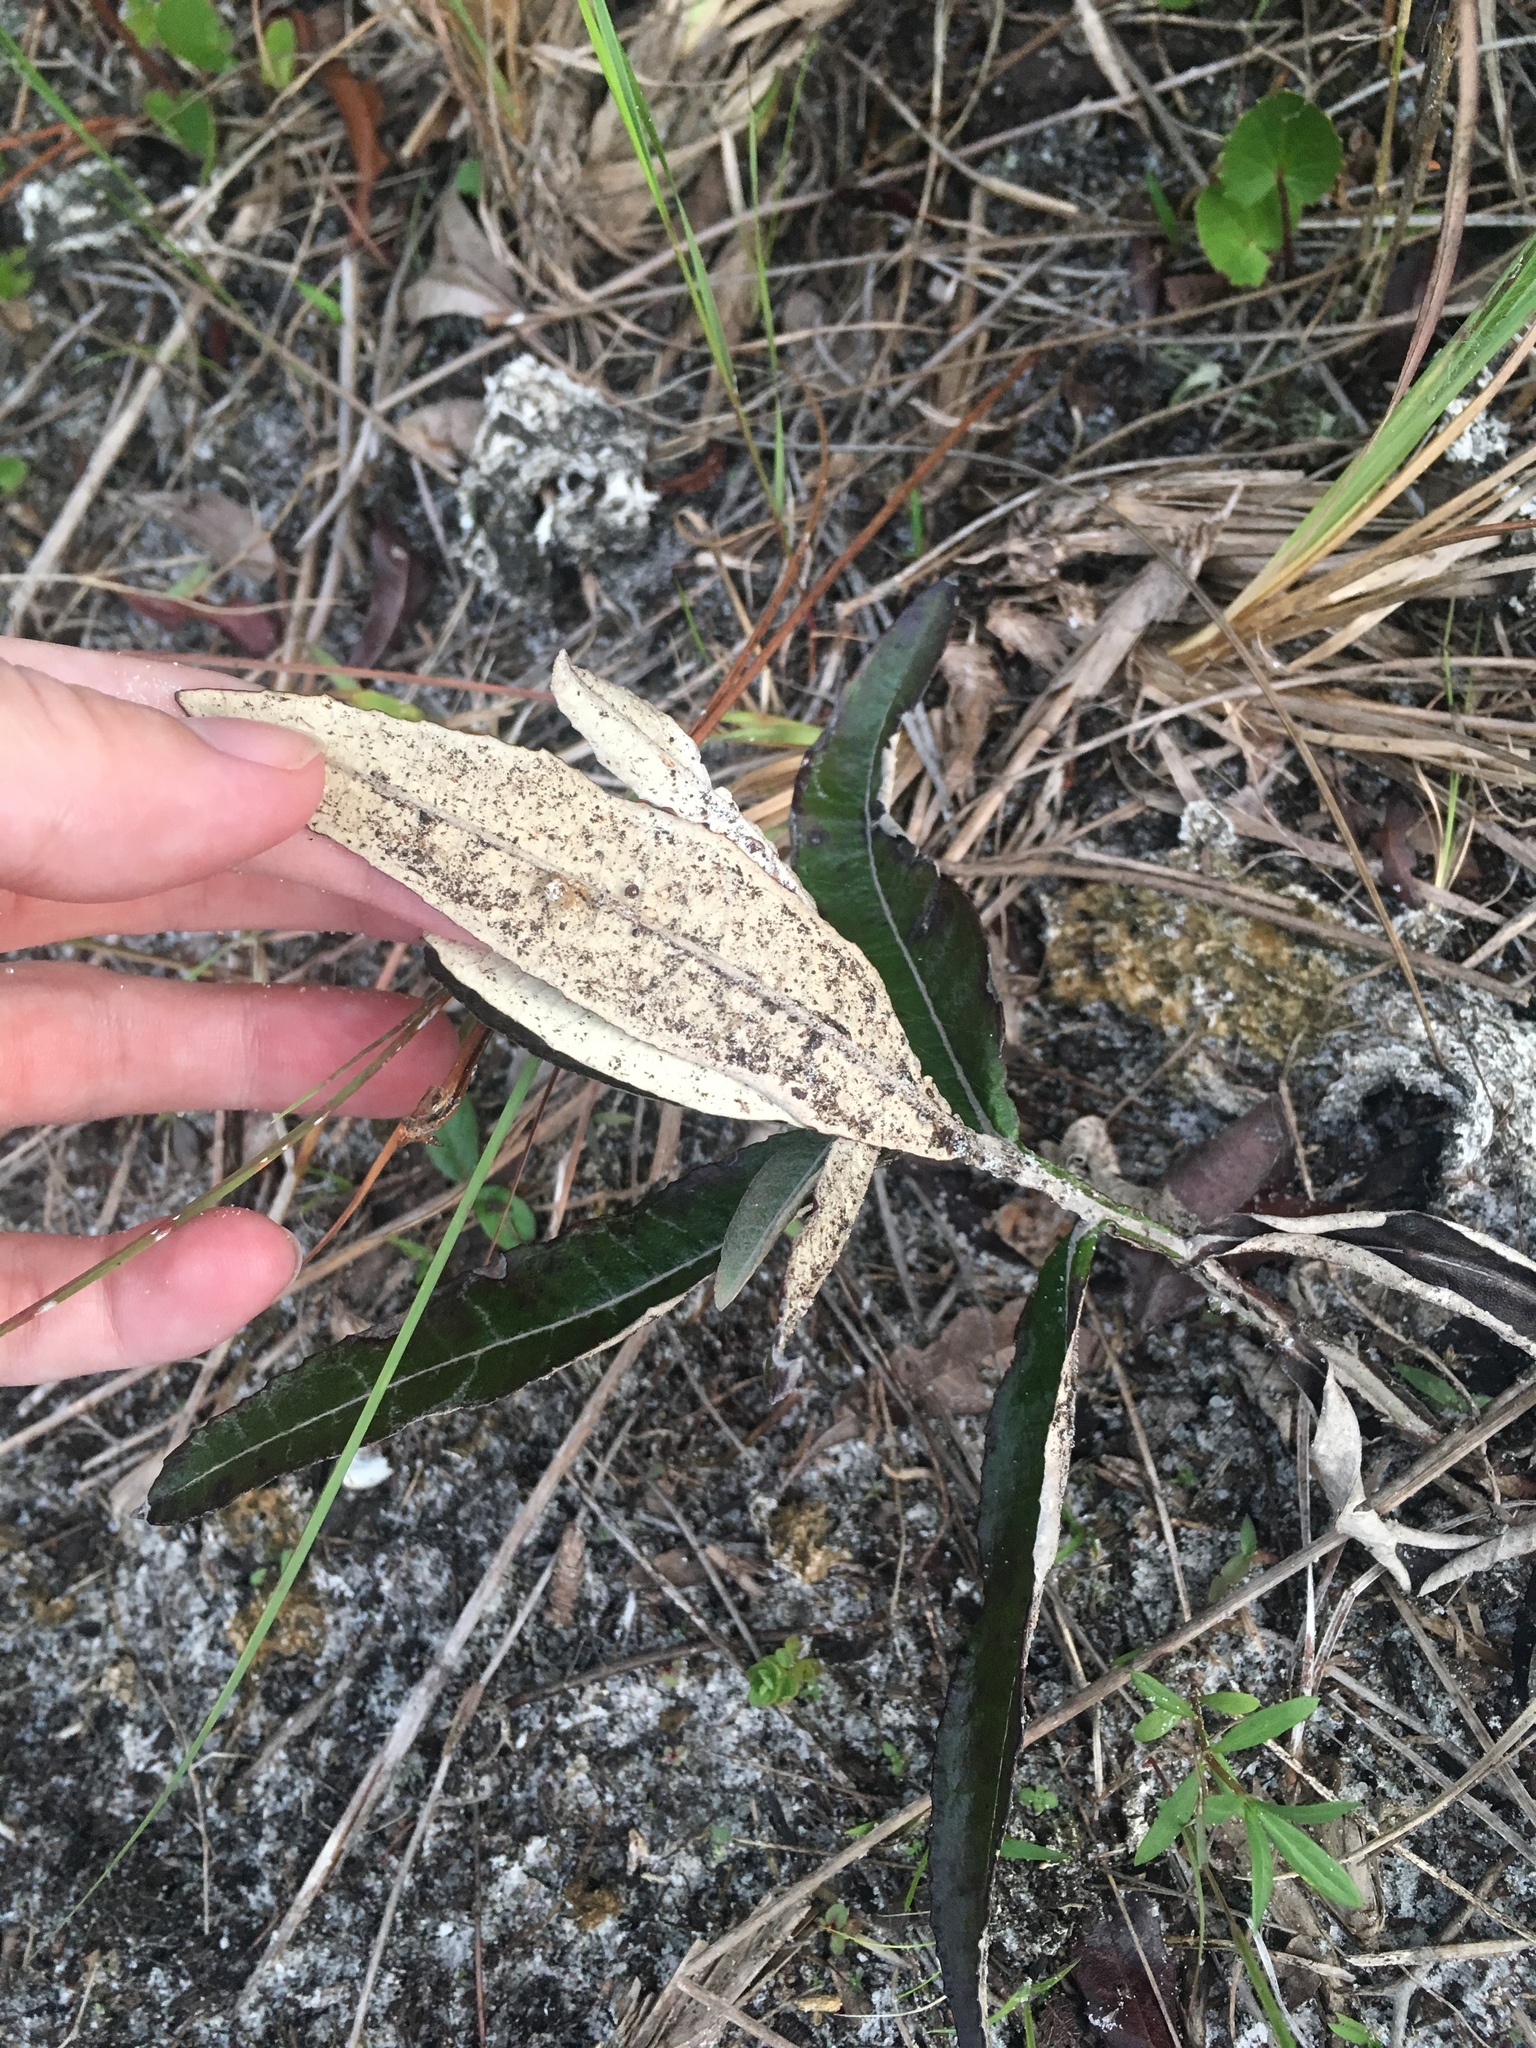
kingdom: Plantae
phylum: Tracheophyta
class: Magnoliopsida
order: Asterales
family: Asteraceae
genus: Pterocaulon
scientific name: Pterocaulon pycnostachyum
